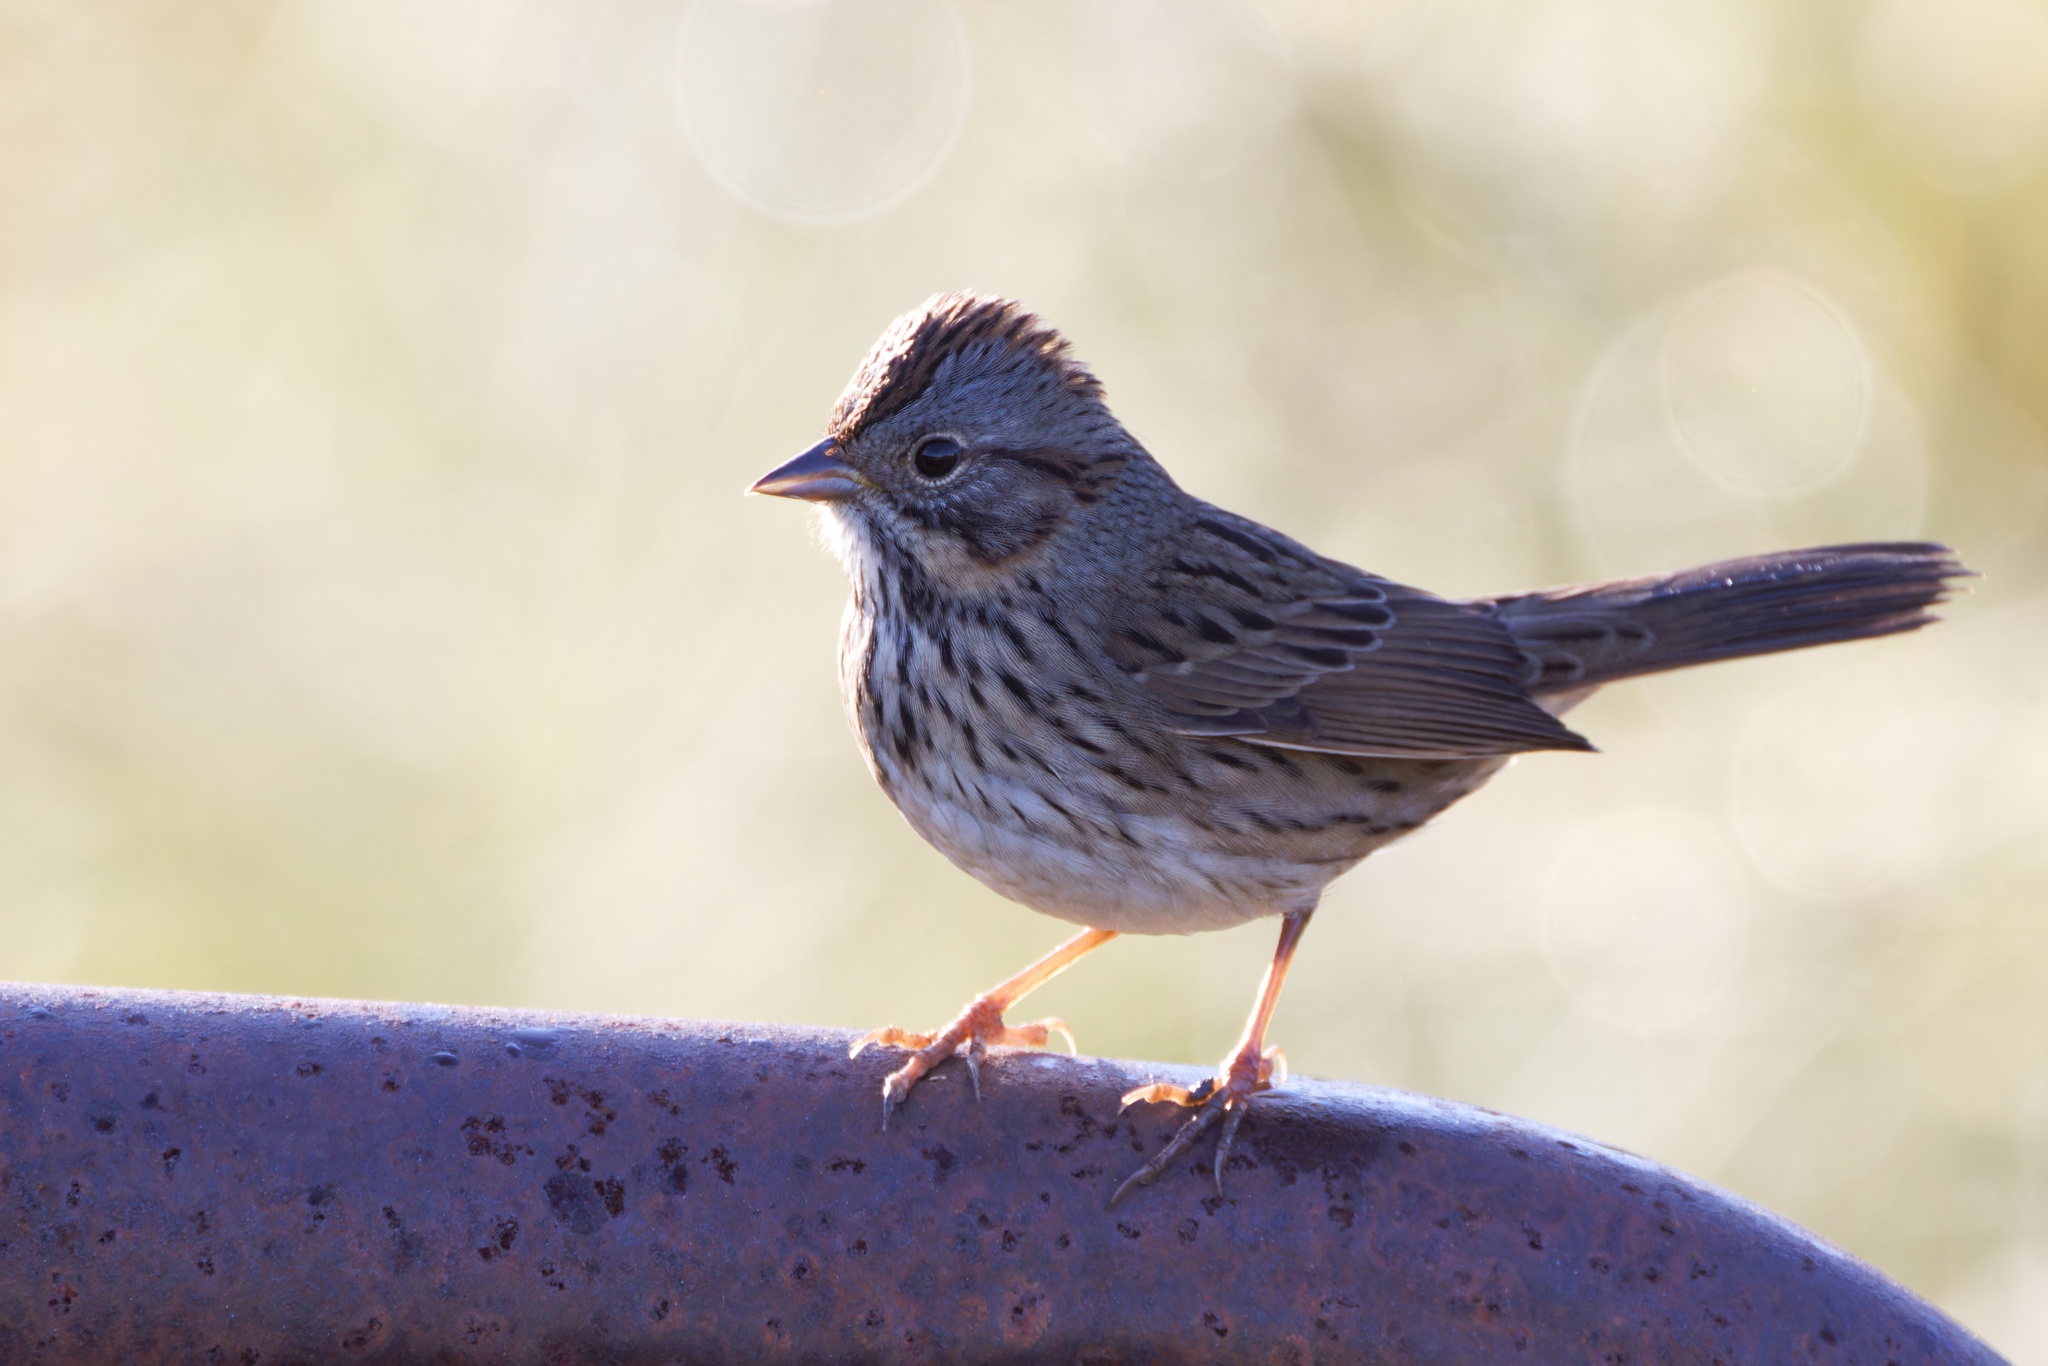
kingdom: Animalia
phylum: Chordata
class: Aves
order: Passeriformes
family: Passerellidae
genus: Melospiza
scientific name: Melospiza lincolnii
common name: Lincoln's sparrow
